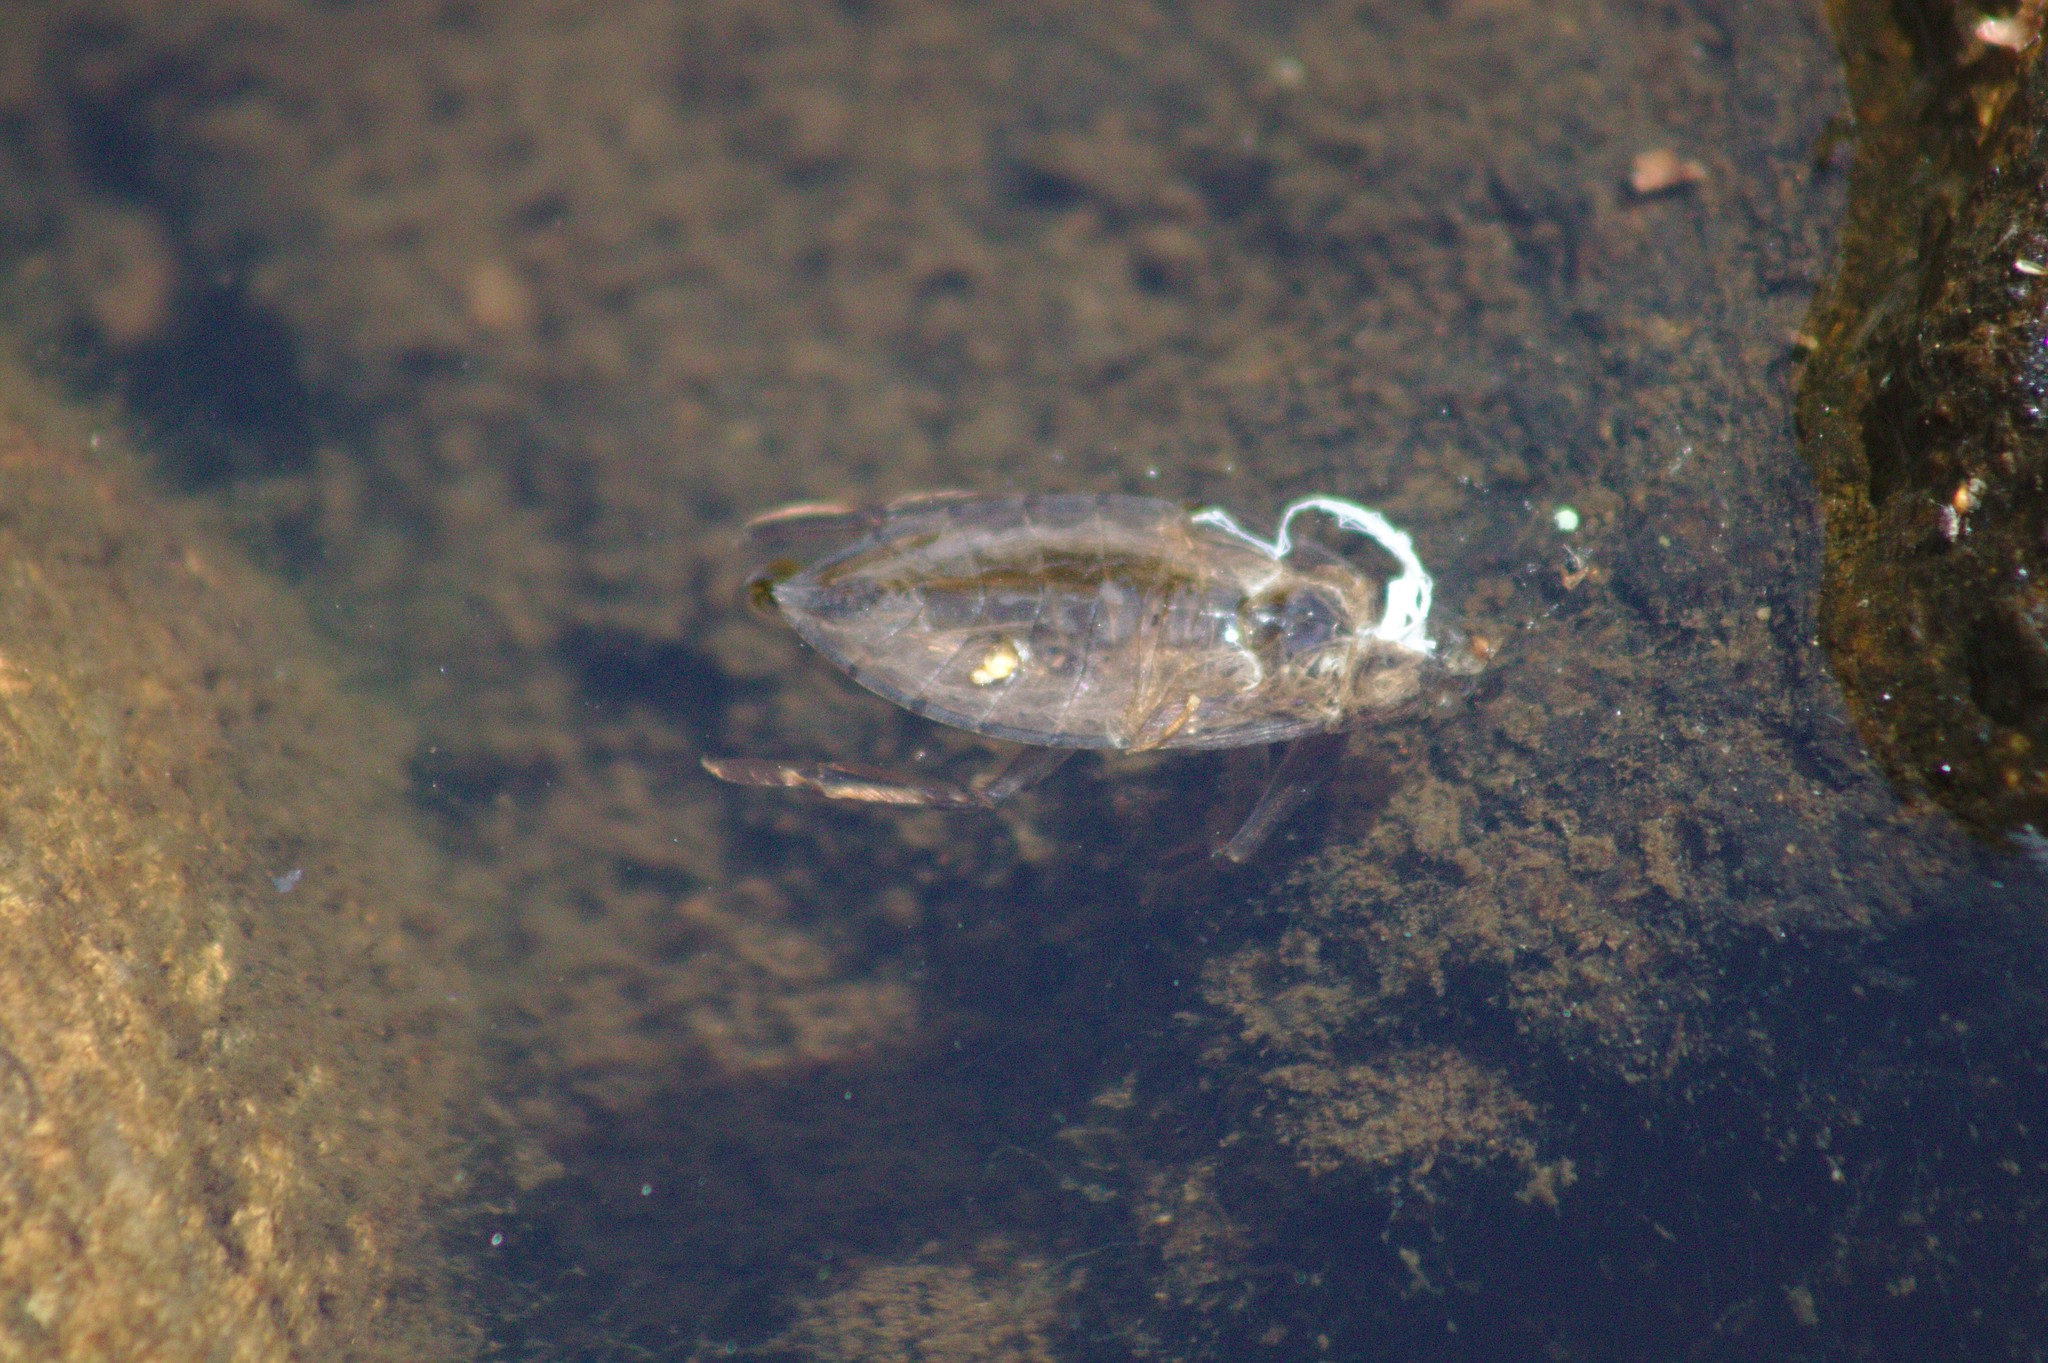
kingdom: Animalia
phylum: Arthropoda
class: Insecta
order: Hemiptera
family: Belostomatidae
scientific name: Belostomatidae
